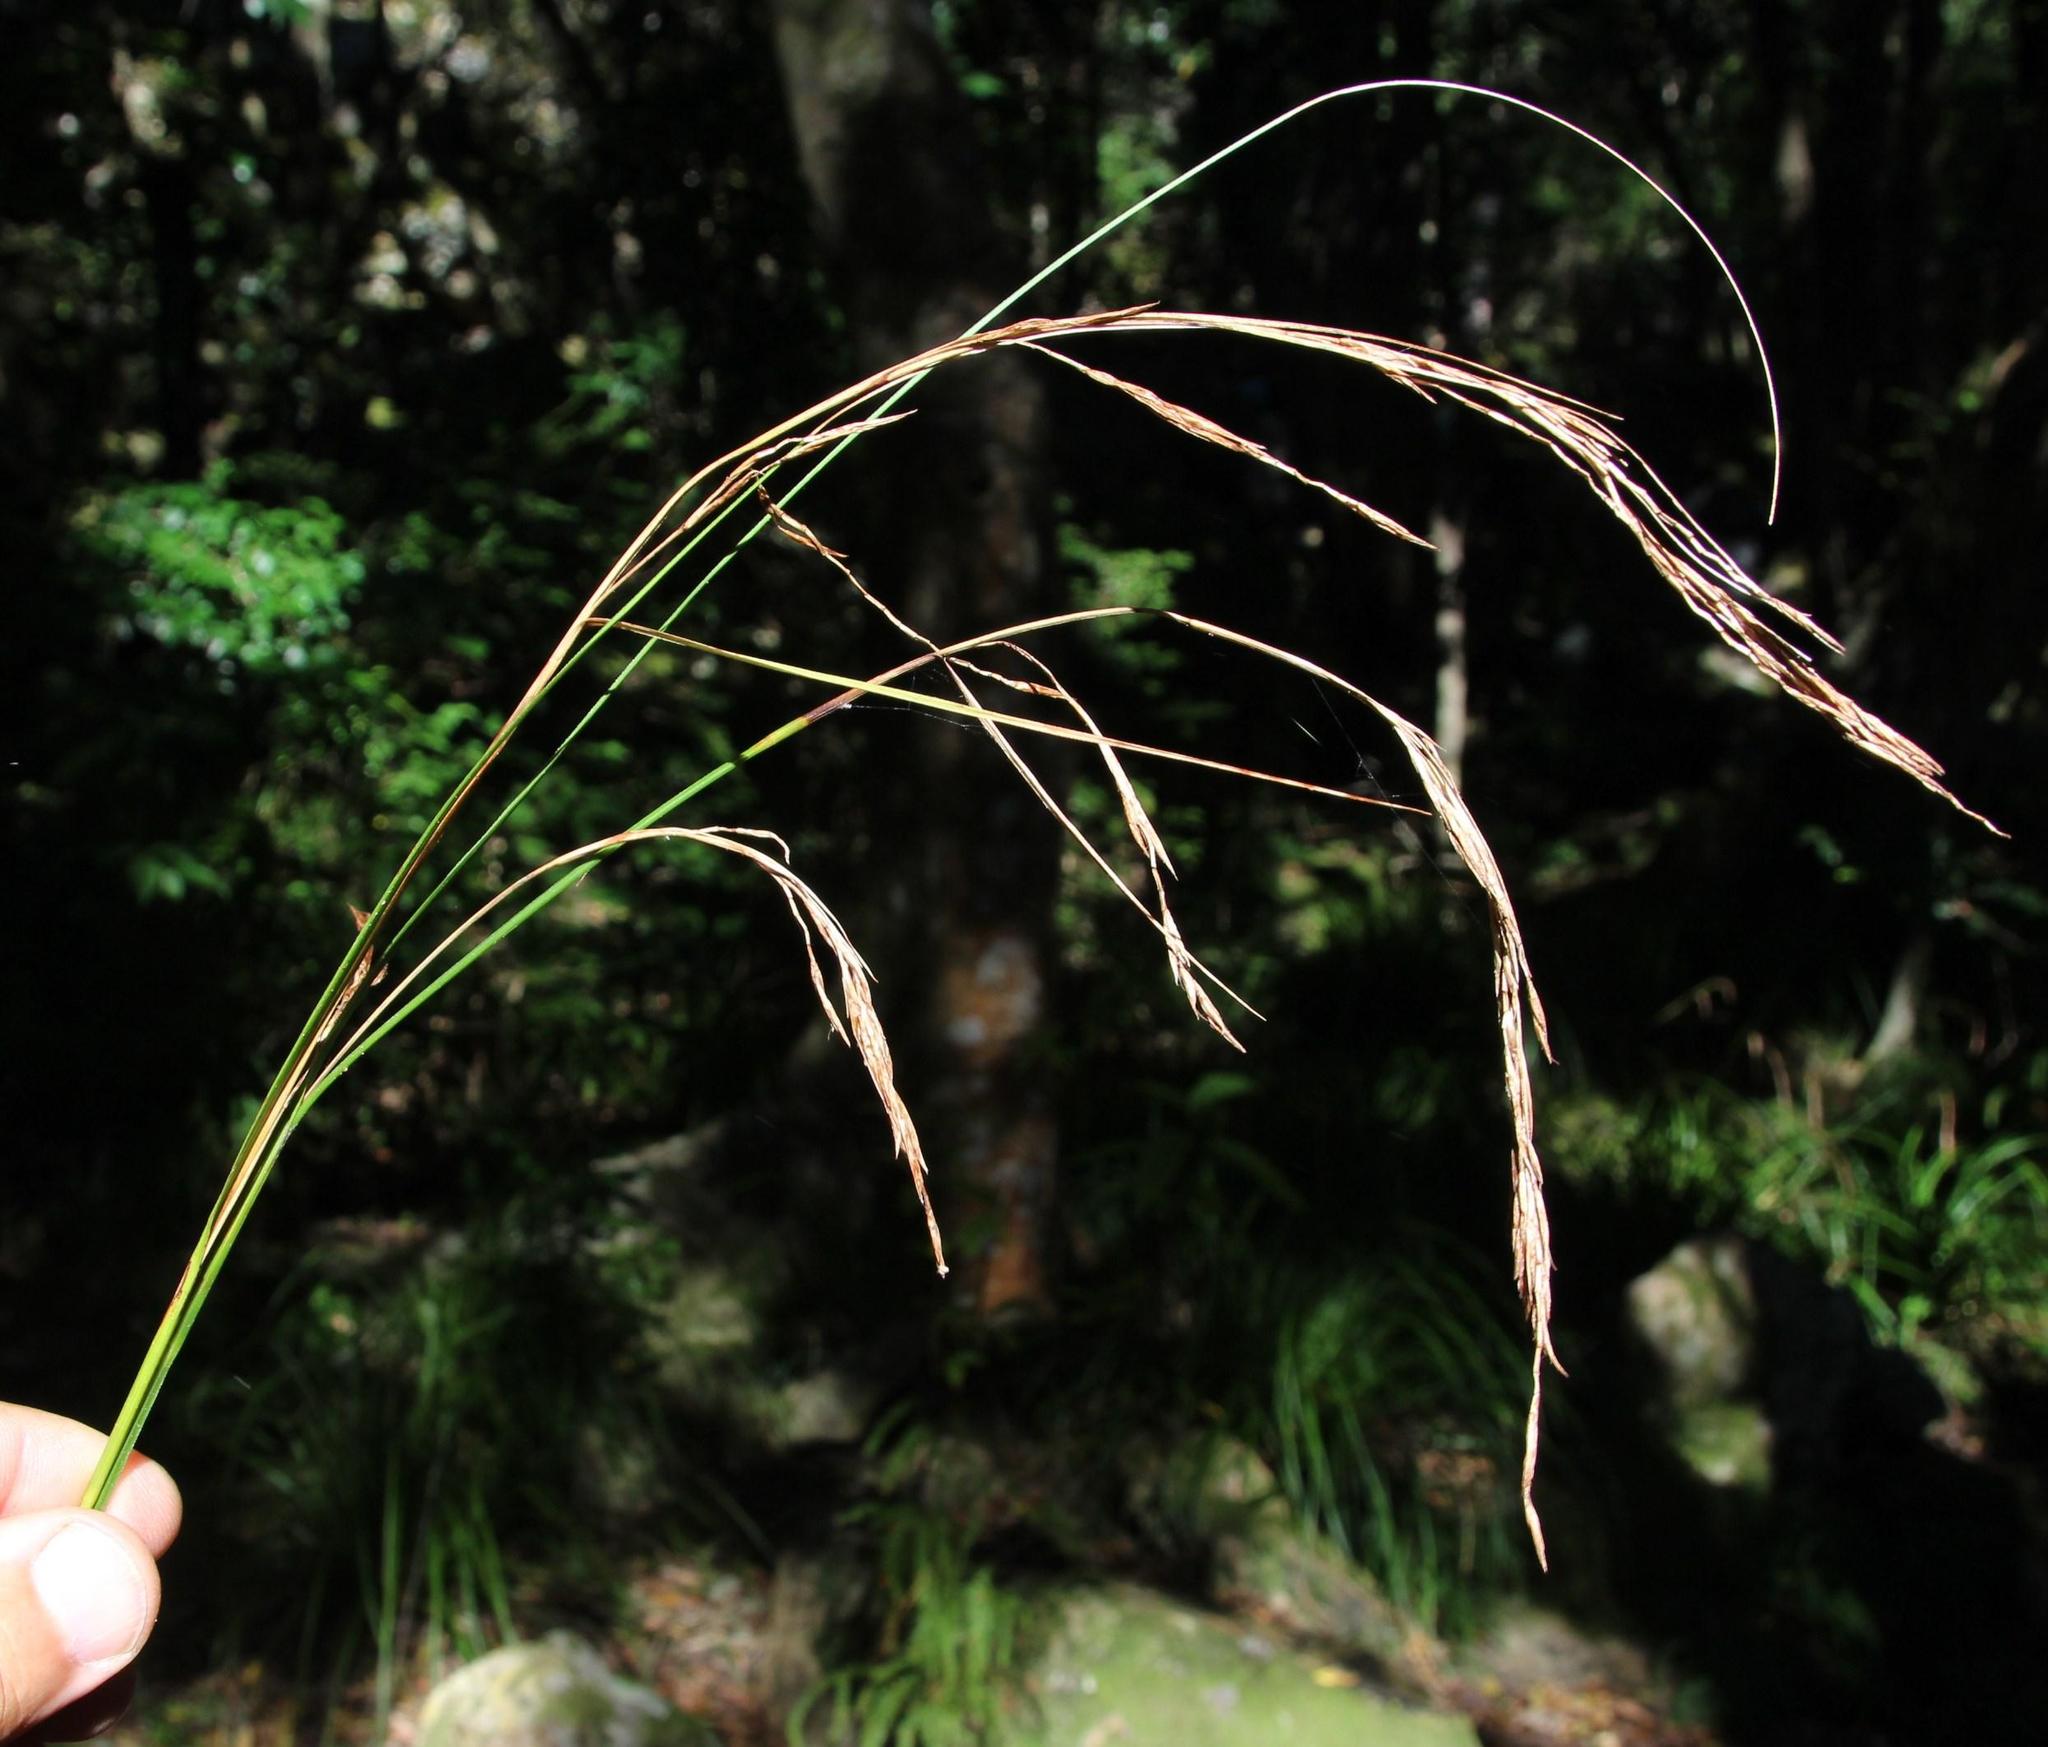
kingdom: Plantae
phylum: Tracheophyta
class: Liliopsida
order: Poales
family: Cyperaceae
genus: Carex
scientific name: Carex lancea
